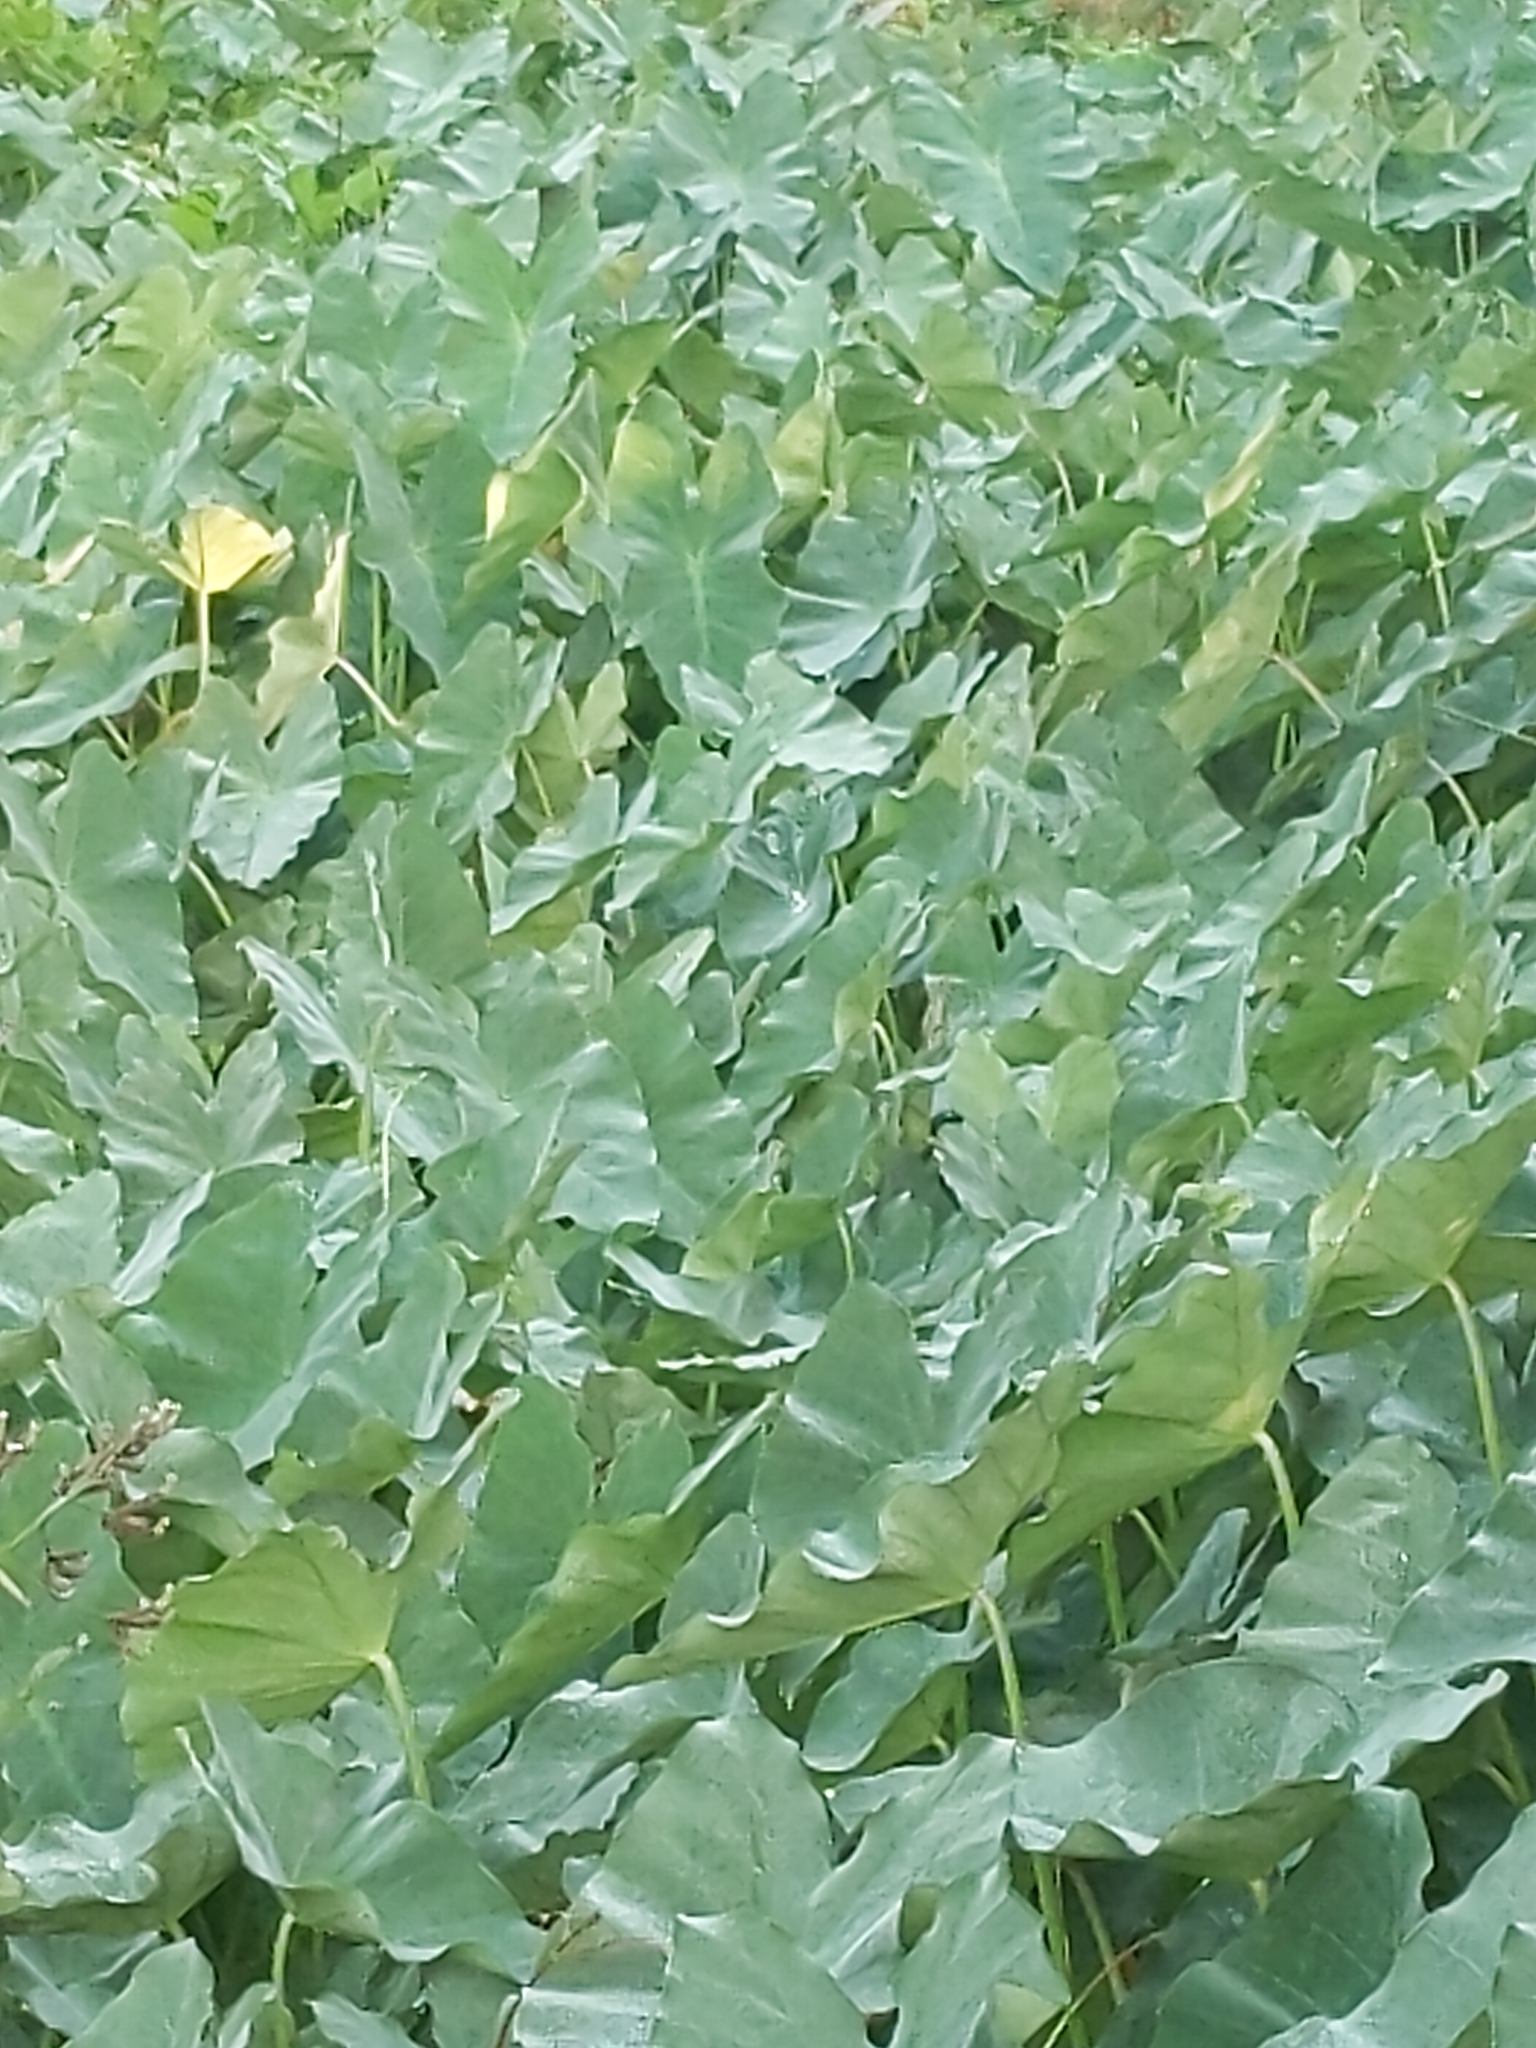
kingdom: Plantae
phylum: Tracheophyta
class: Liliopsida
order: Alismatales
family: Araceae
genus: Colocasia
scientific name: Colocasia esculenta
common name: Taro
